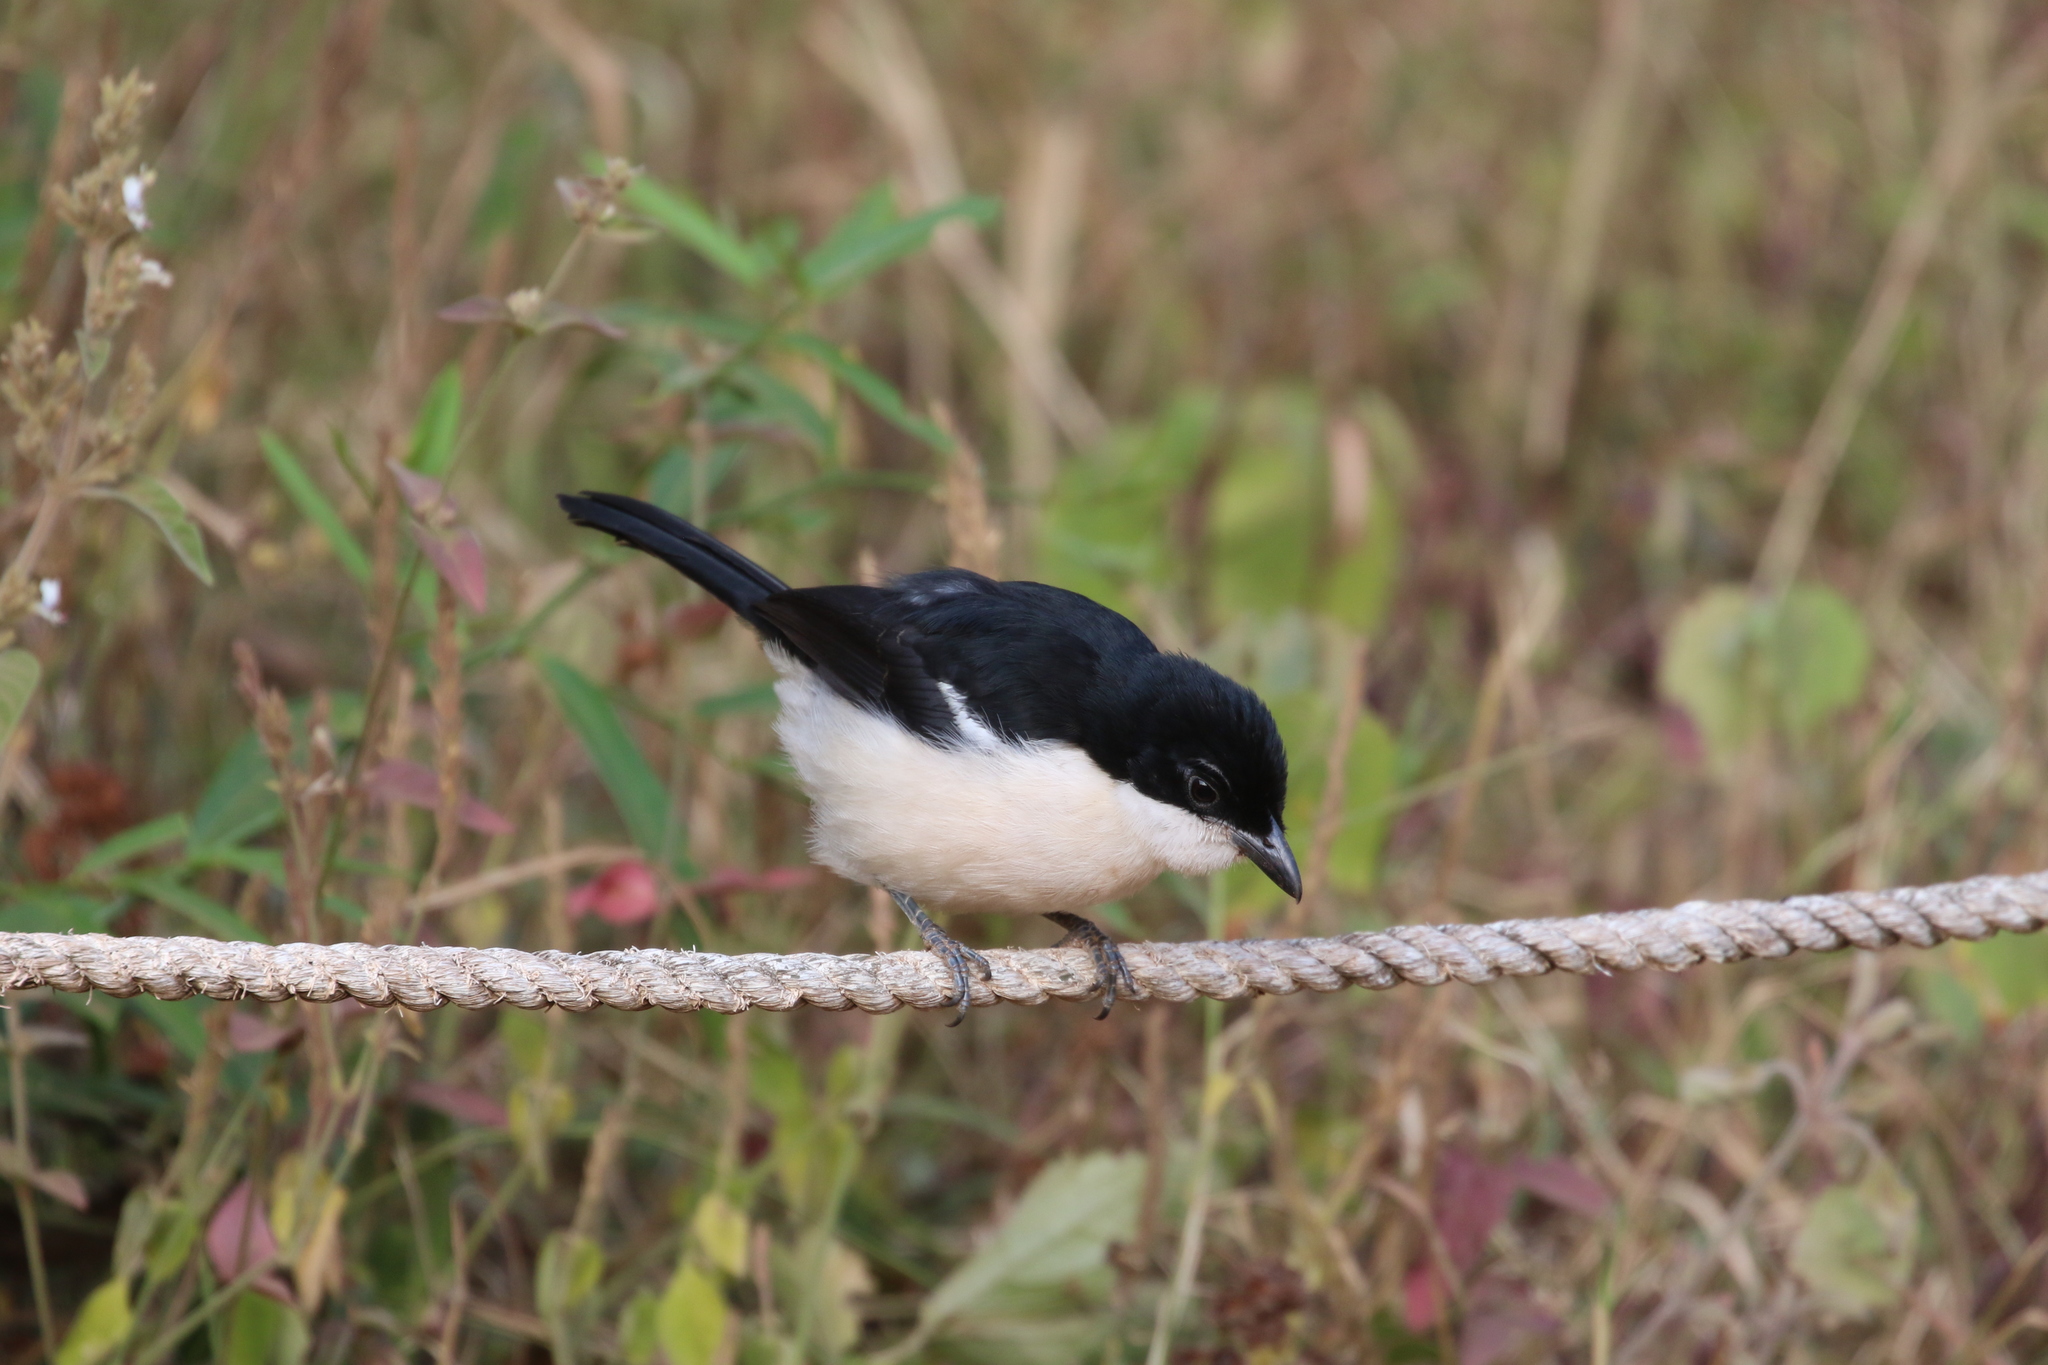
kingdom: Animalia
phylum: Chordata
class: Aves
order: Passeriformes
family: Malaconotidae
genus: Laniarius
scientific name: Laniarius major
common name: Tropical boubou
